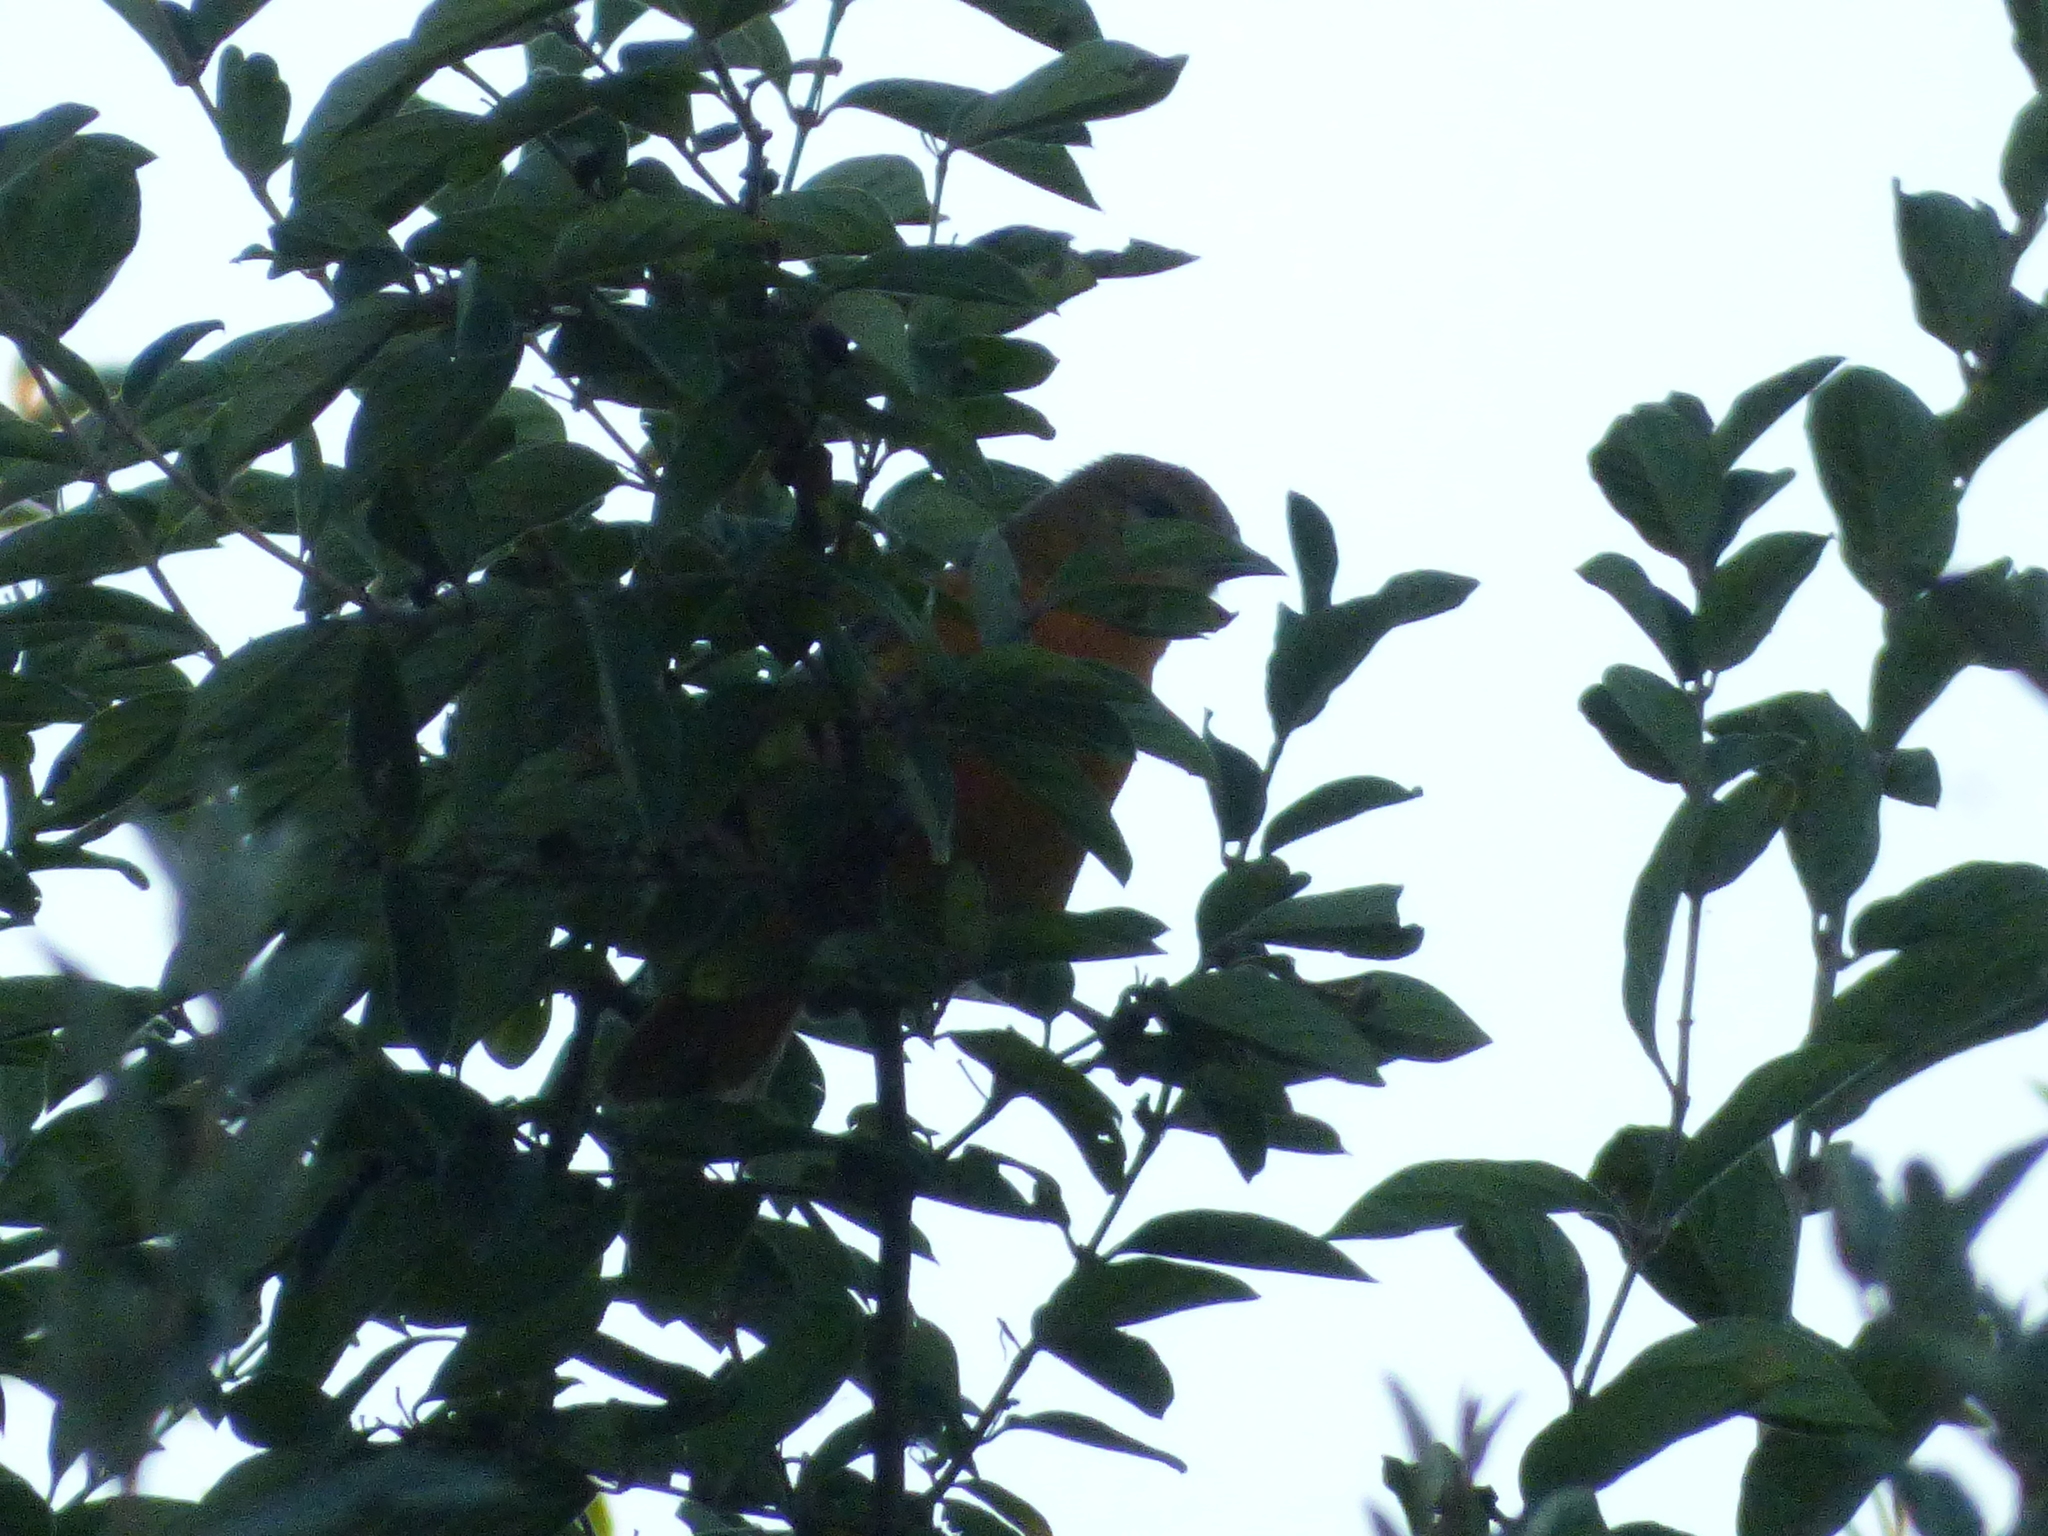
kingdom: Animalia
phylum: Chordata
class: Aves
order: Passeriformes
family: Icteridae
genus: Icterus
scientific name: Icterus galbula
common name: Baltimore oriole
